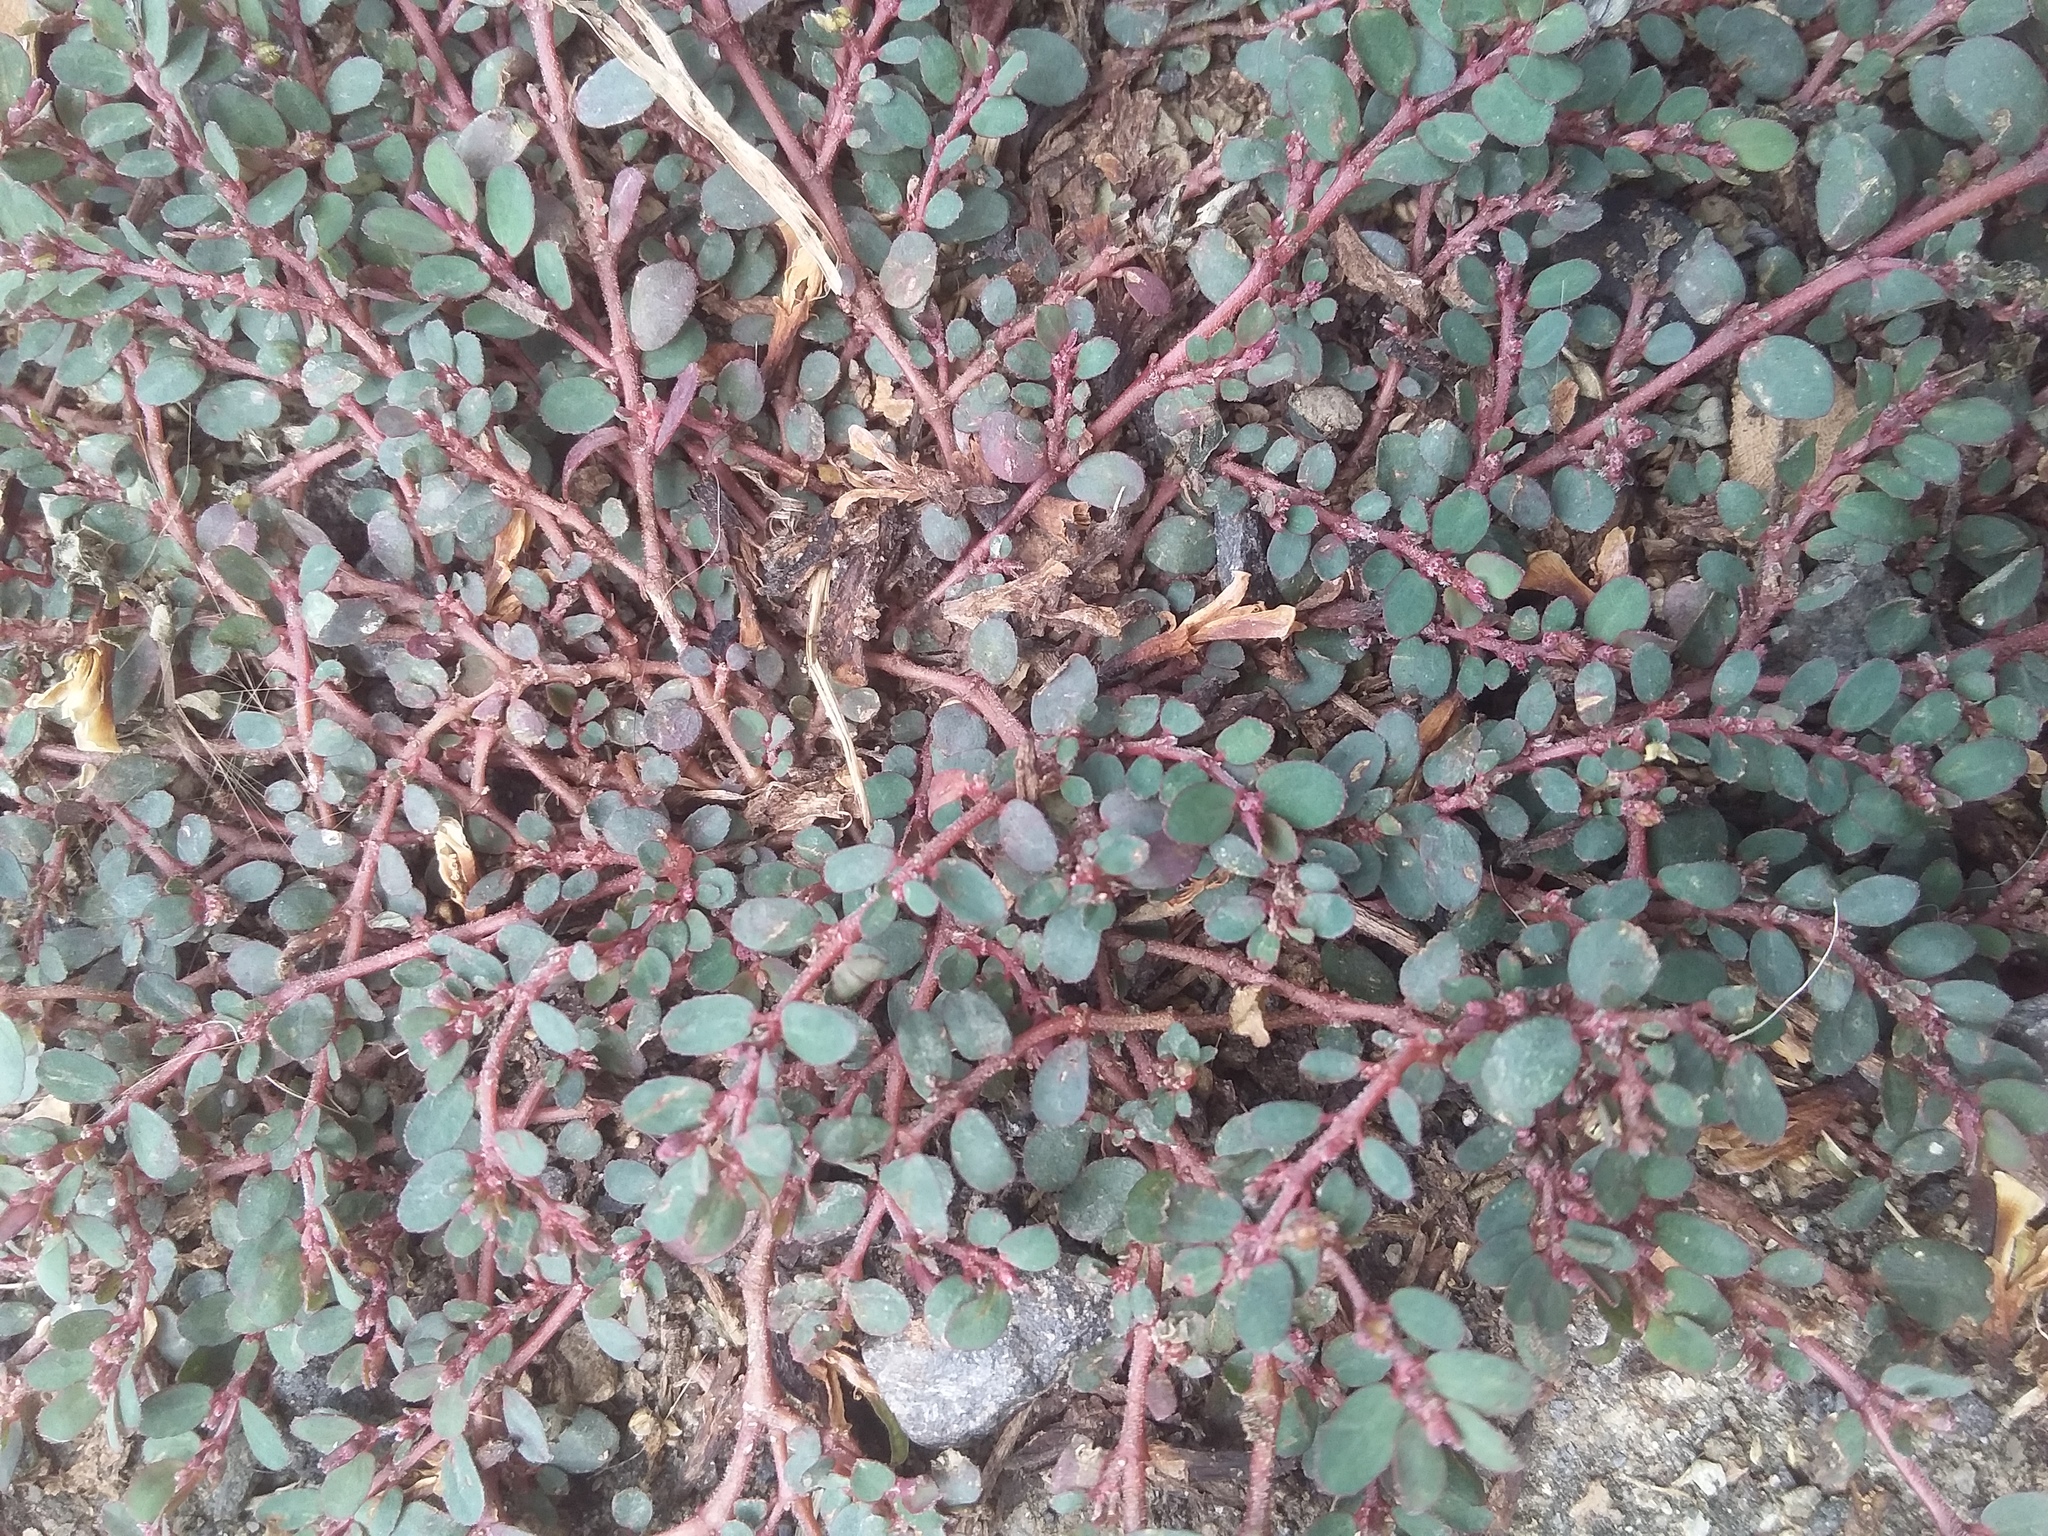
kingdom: Plantae
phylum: Tracheophyta
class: Magnoliopsida
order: Malpighiales
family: Euphorbiaceae
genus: Euphorbia
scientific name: Euphorbia prostrata
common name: Prostrate sandmat
